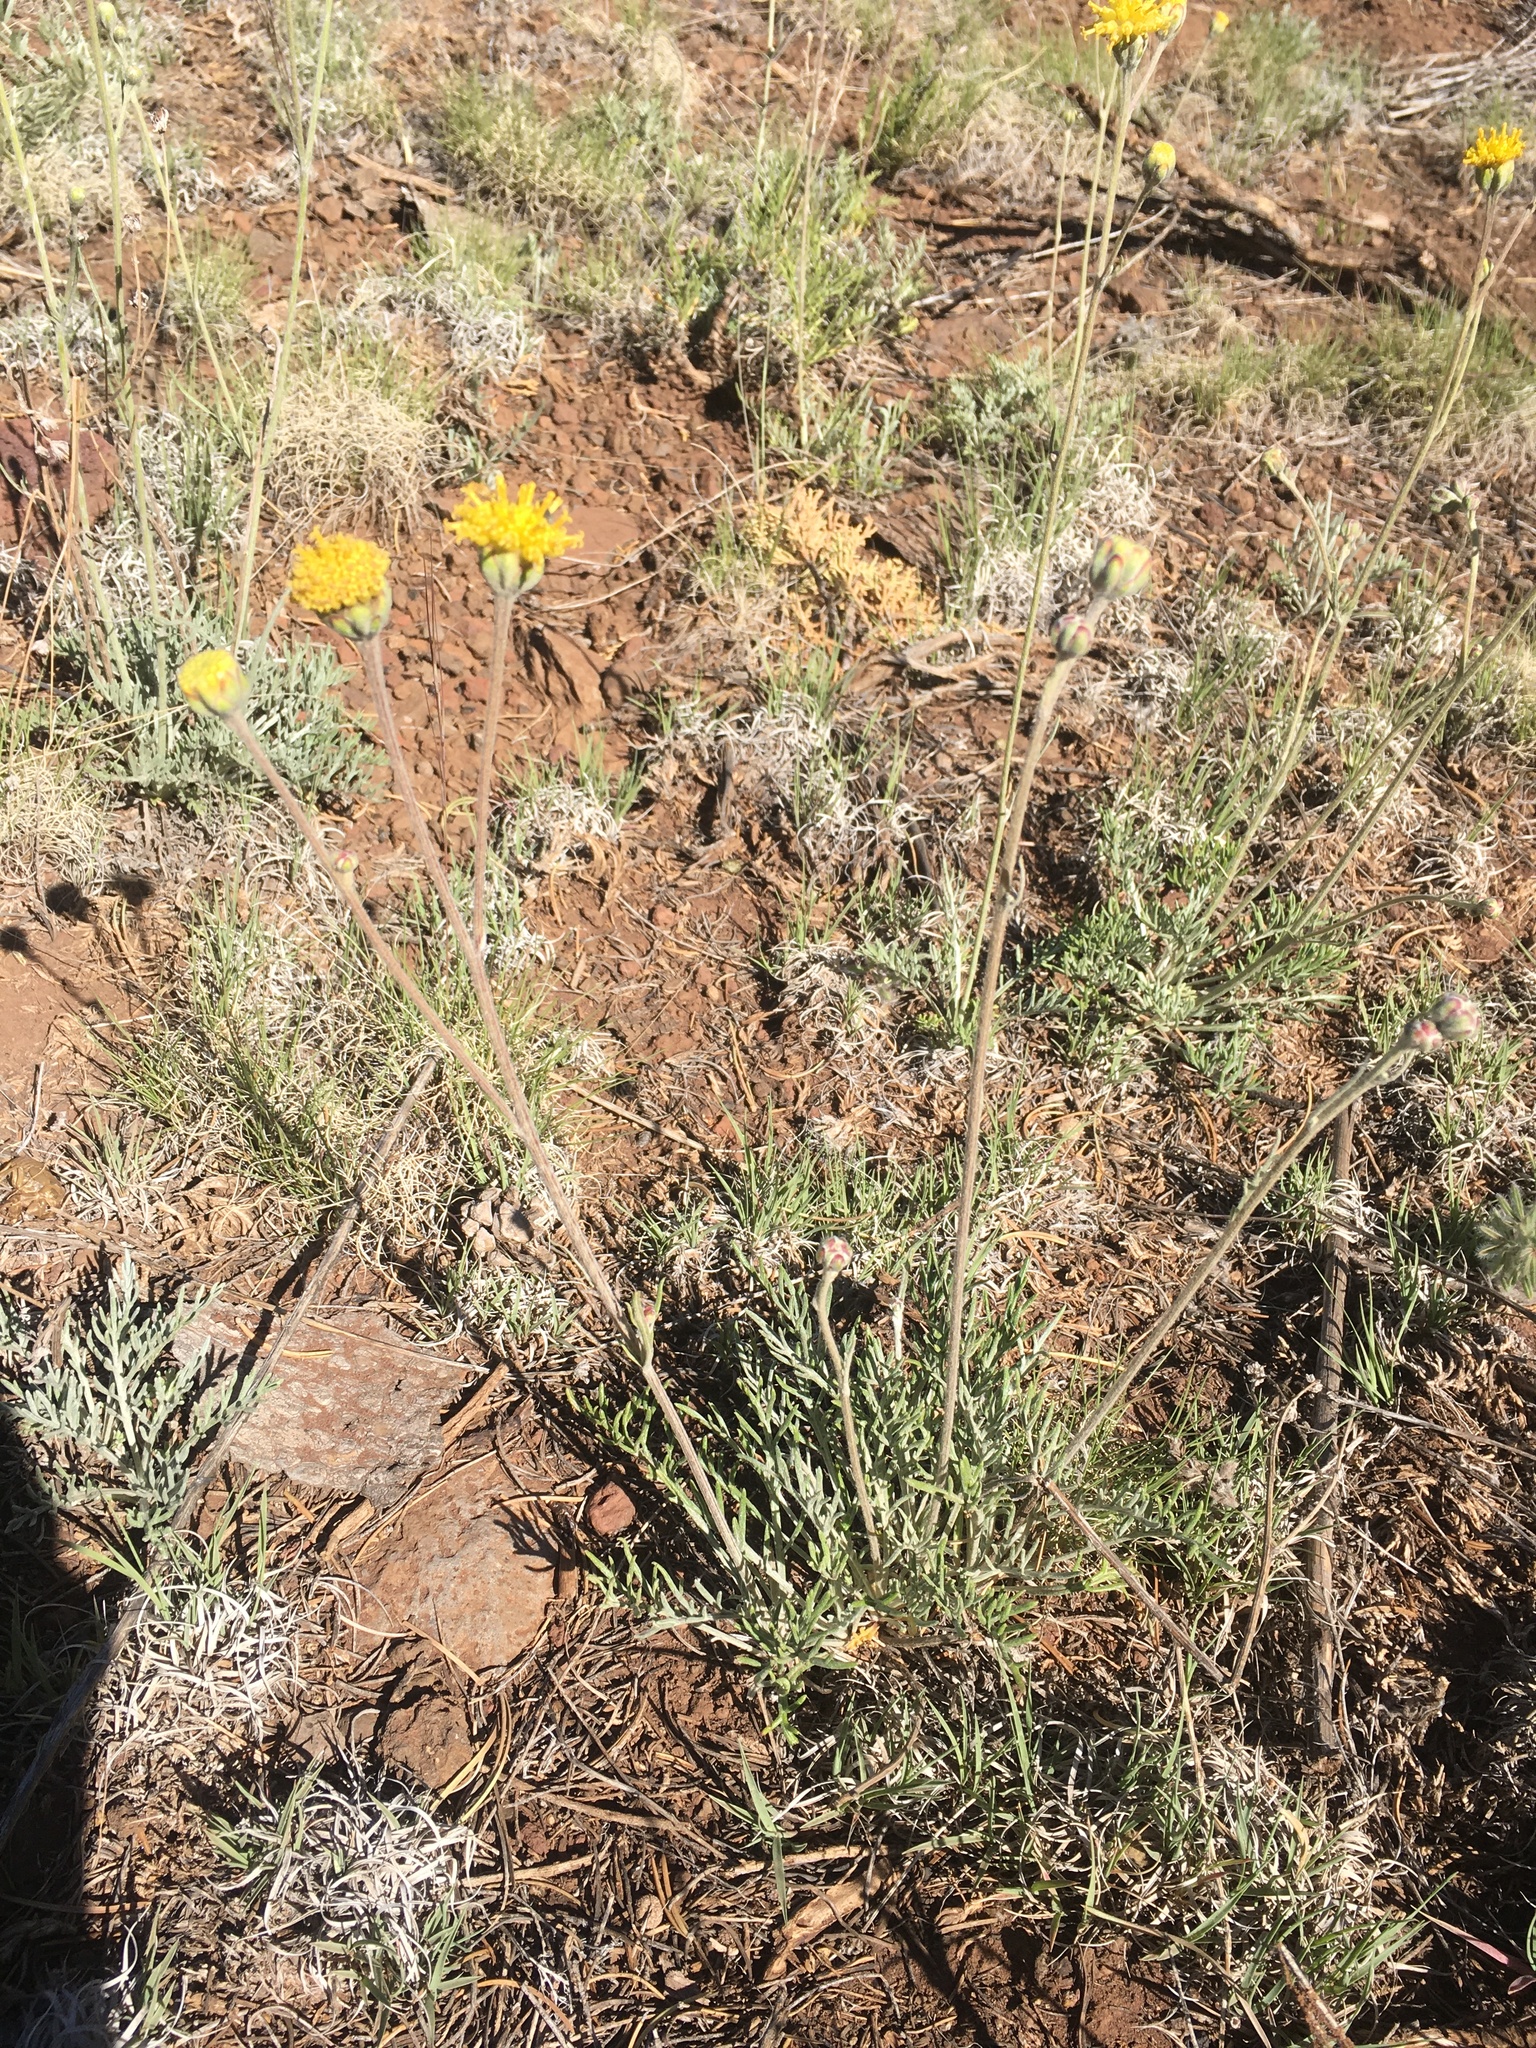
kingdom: Plantae
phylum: Tracheophyta
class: Magnoliopsida
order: Asterales
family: Asteraceae
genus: Hymenopappus
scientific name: Hymenopappus filifolius
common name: Columbia cutleaf
